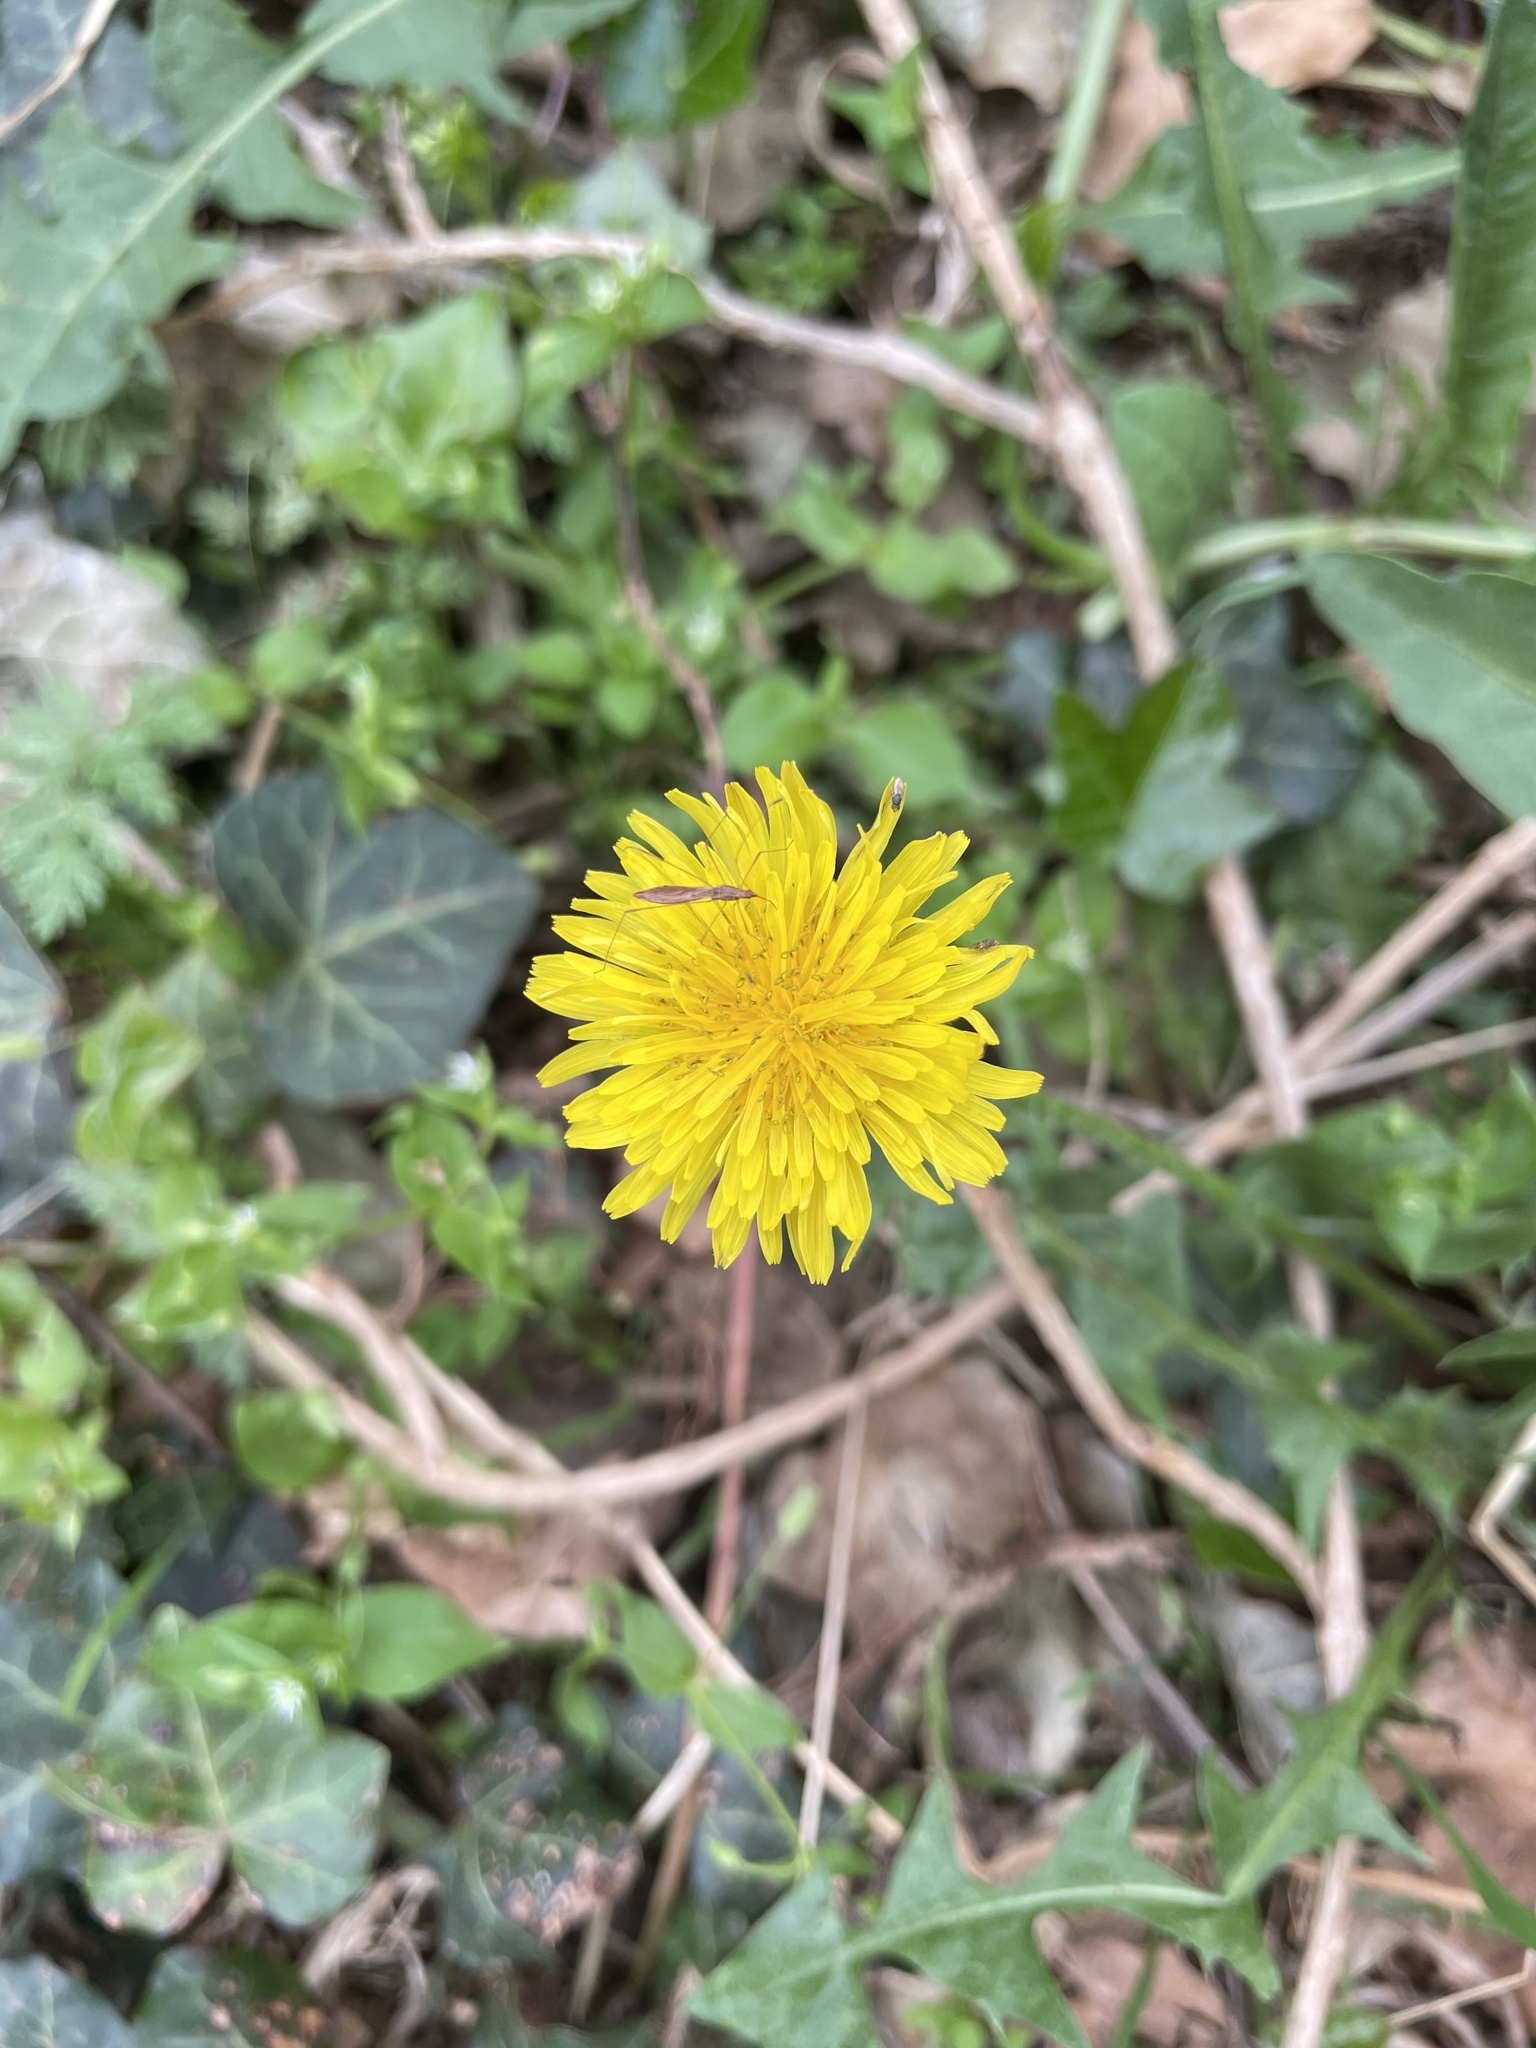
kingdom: Plantae
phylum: Tracheophyta
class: Magnoliopsida
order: Asterales
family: Asteraceae
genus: Taraxacum
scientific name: Taraxacum
